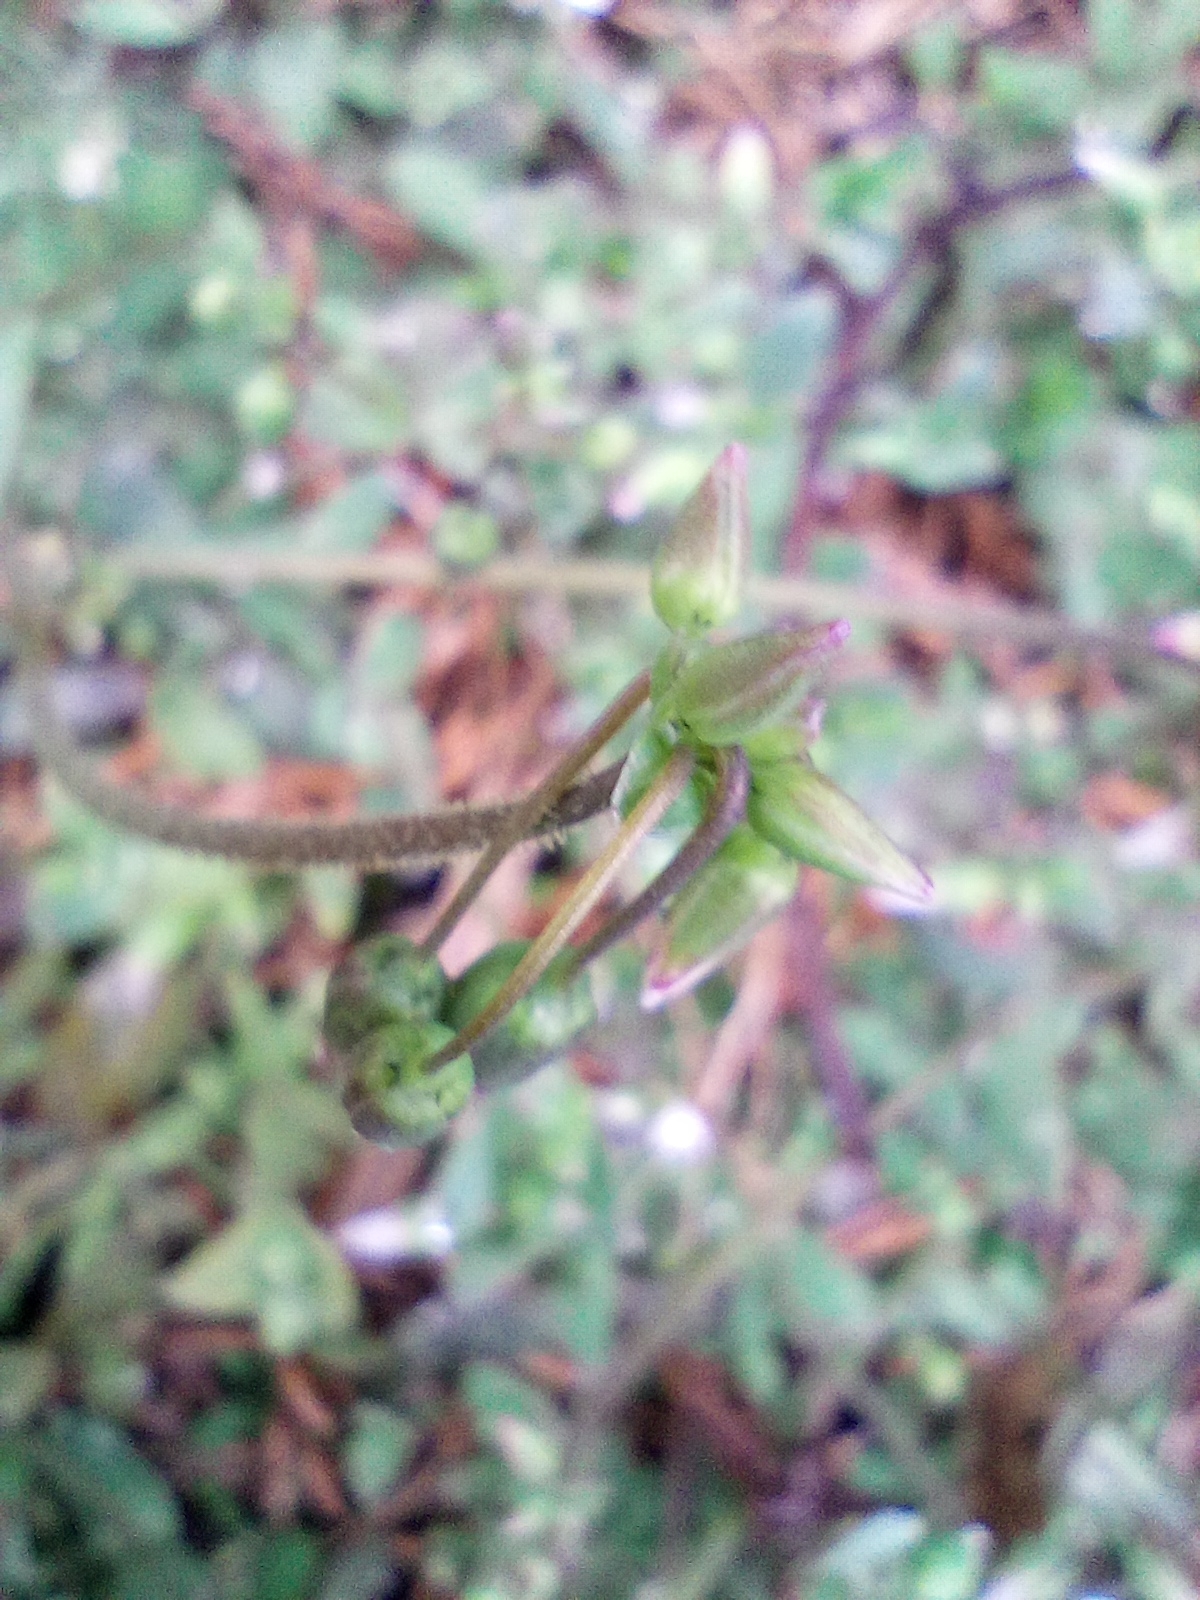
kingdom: Plantae
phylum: Tracheophyta
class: Magnoliopsida
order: Caryophyllales
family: Caryophyllaceae
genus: Holosteum
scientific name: Holosteum umbellatum
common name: Jagged chickweed
